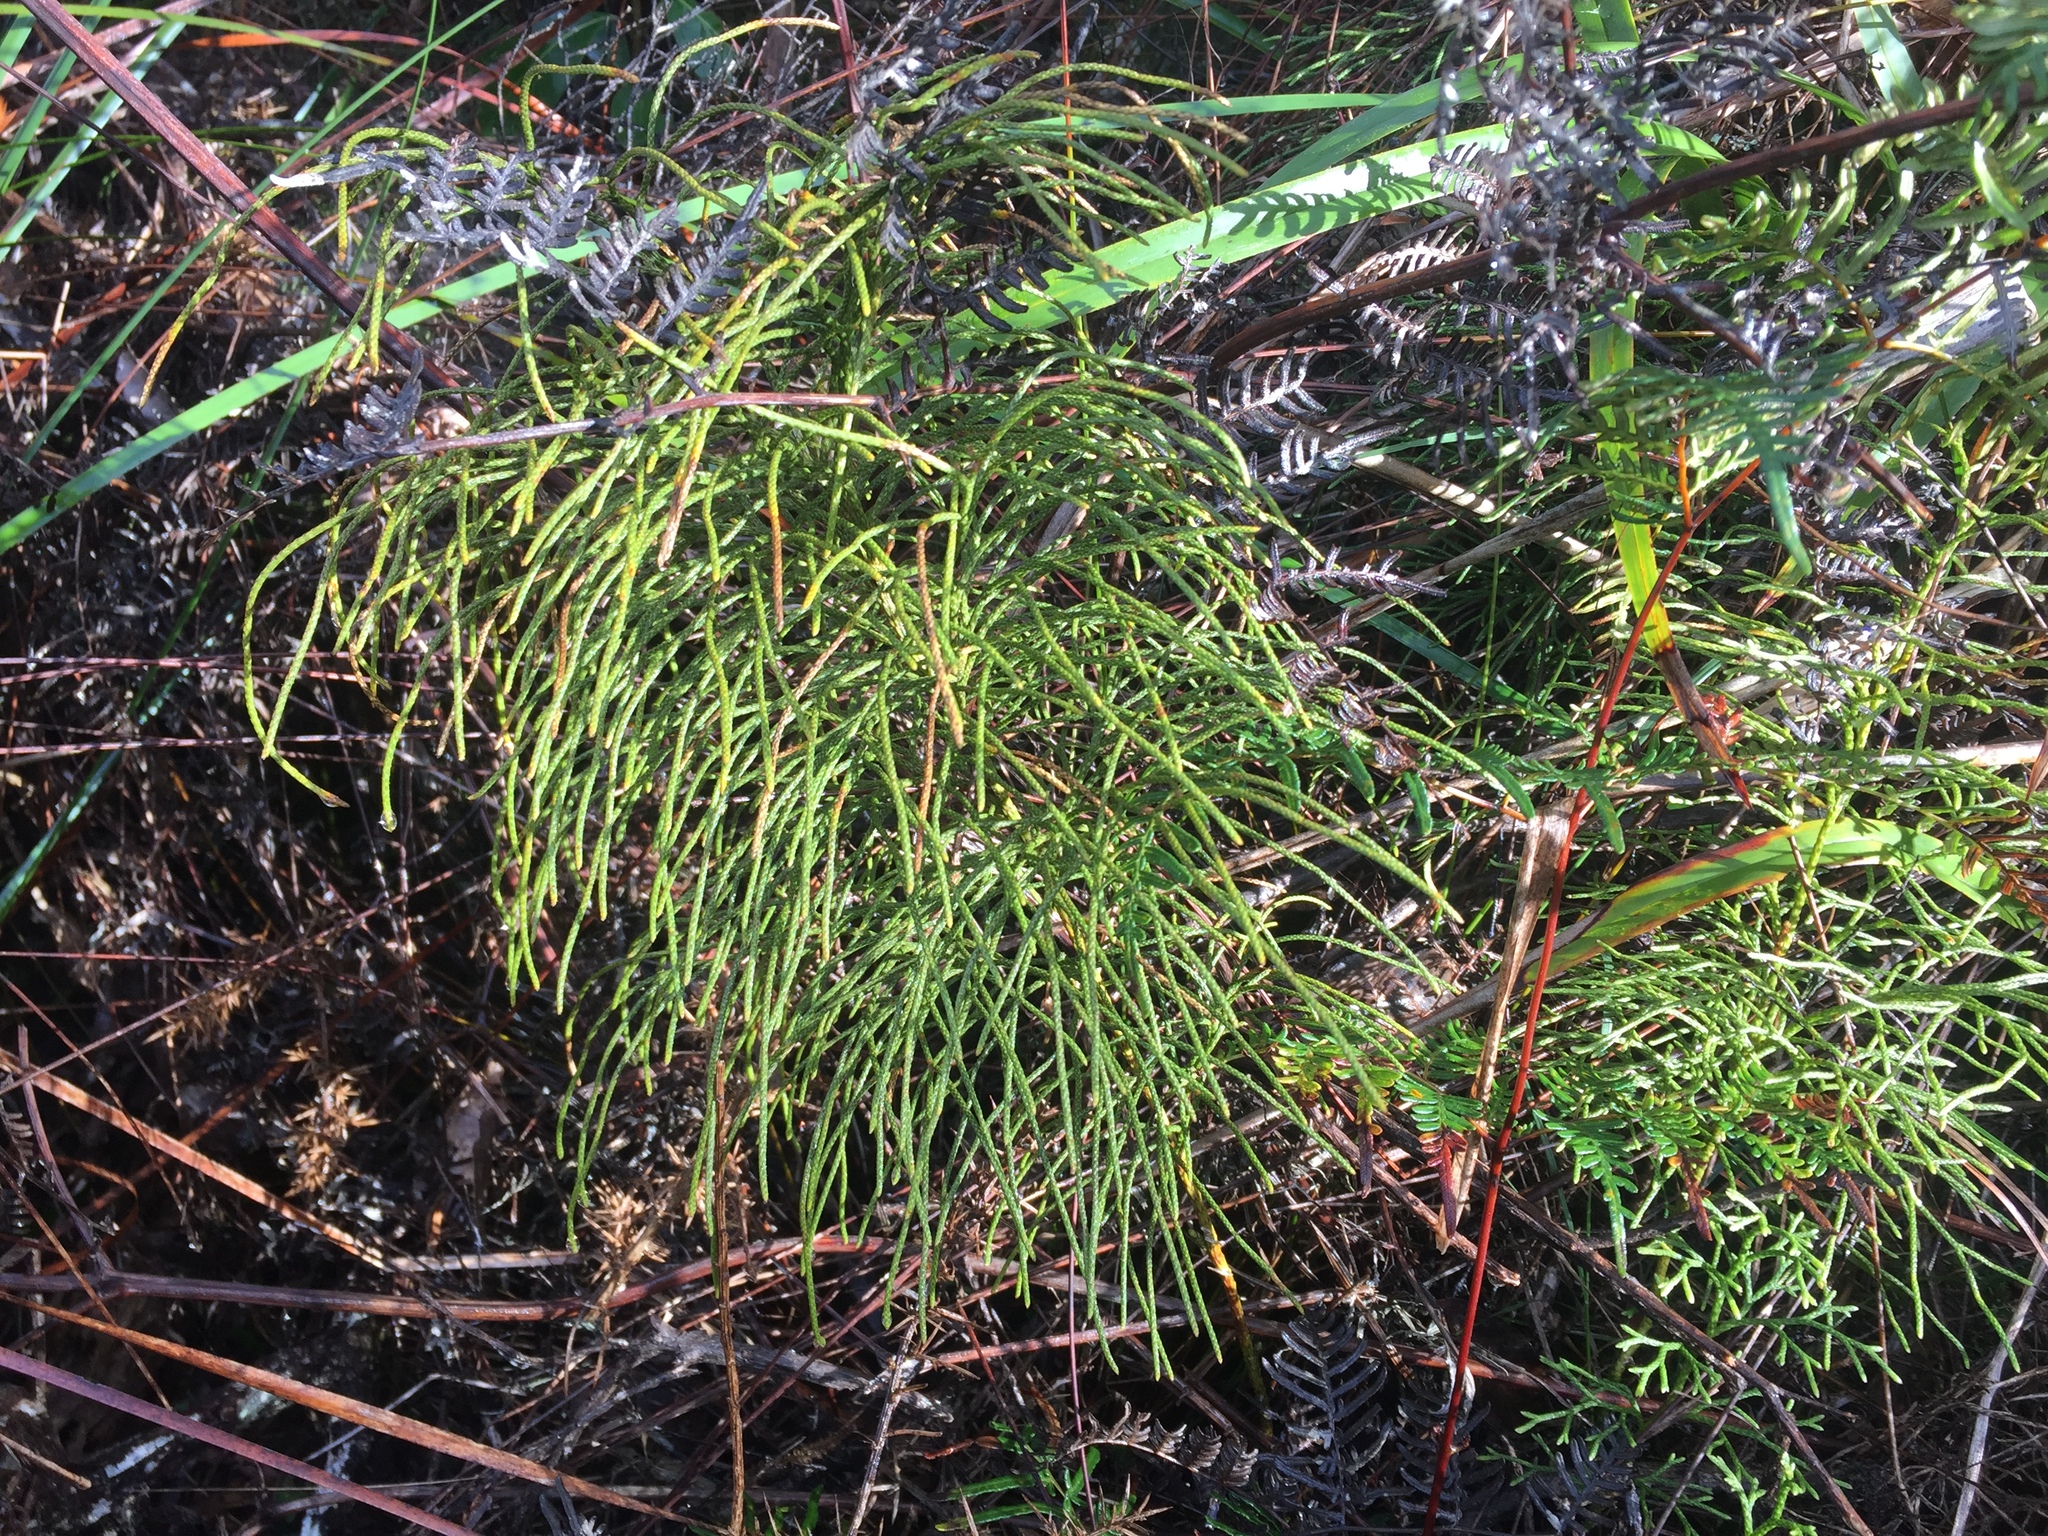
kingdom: Plantae
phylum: Tracheophyta
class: Lycopodiopsida
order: Lycopodiales
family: Lycopodiaceae
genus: Pseudolycopodium
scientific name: Pseudolycopodium densum
